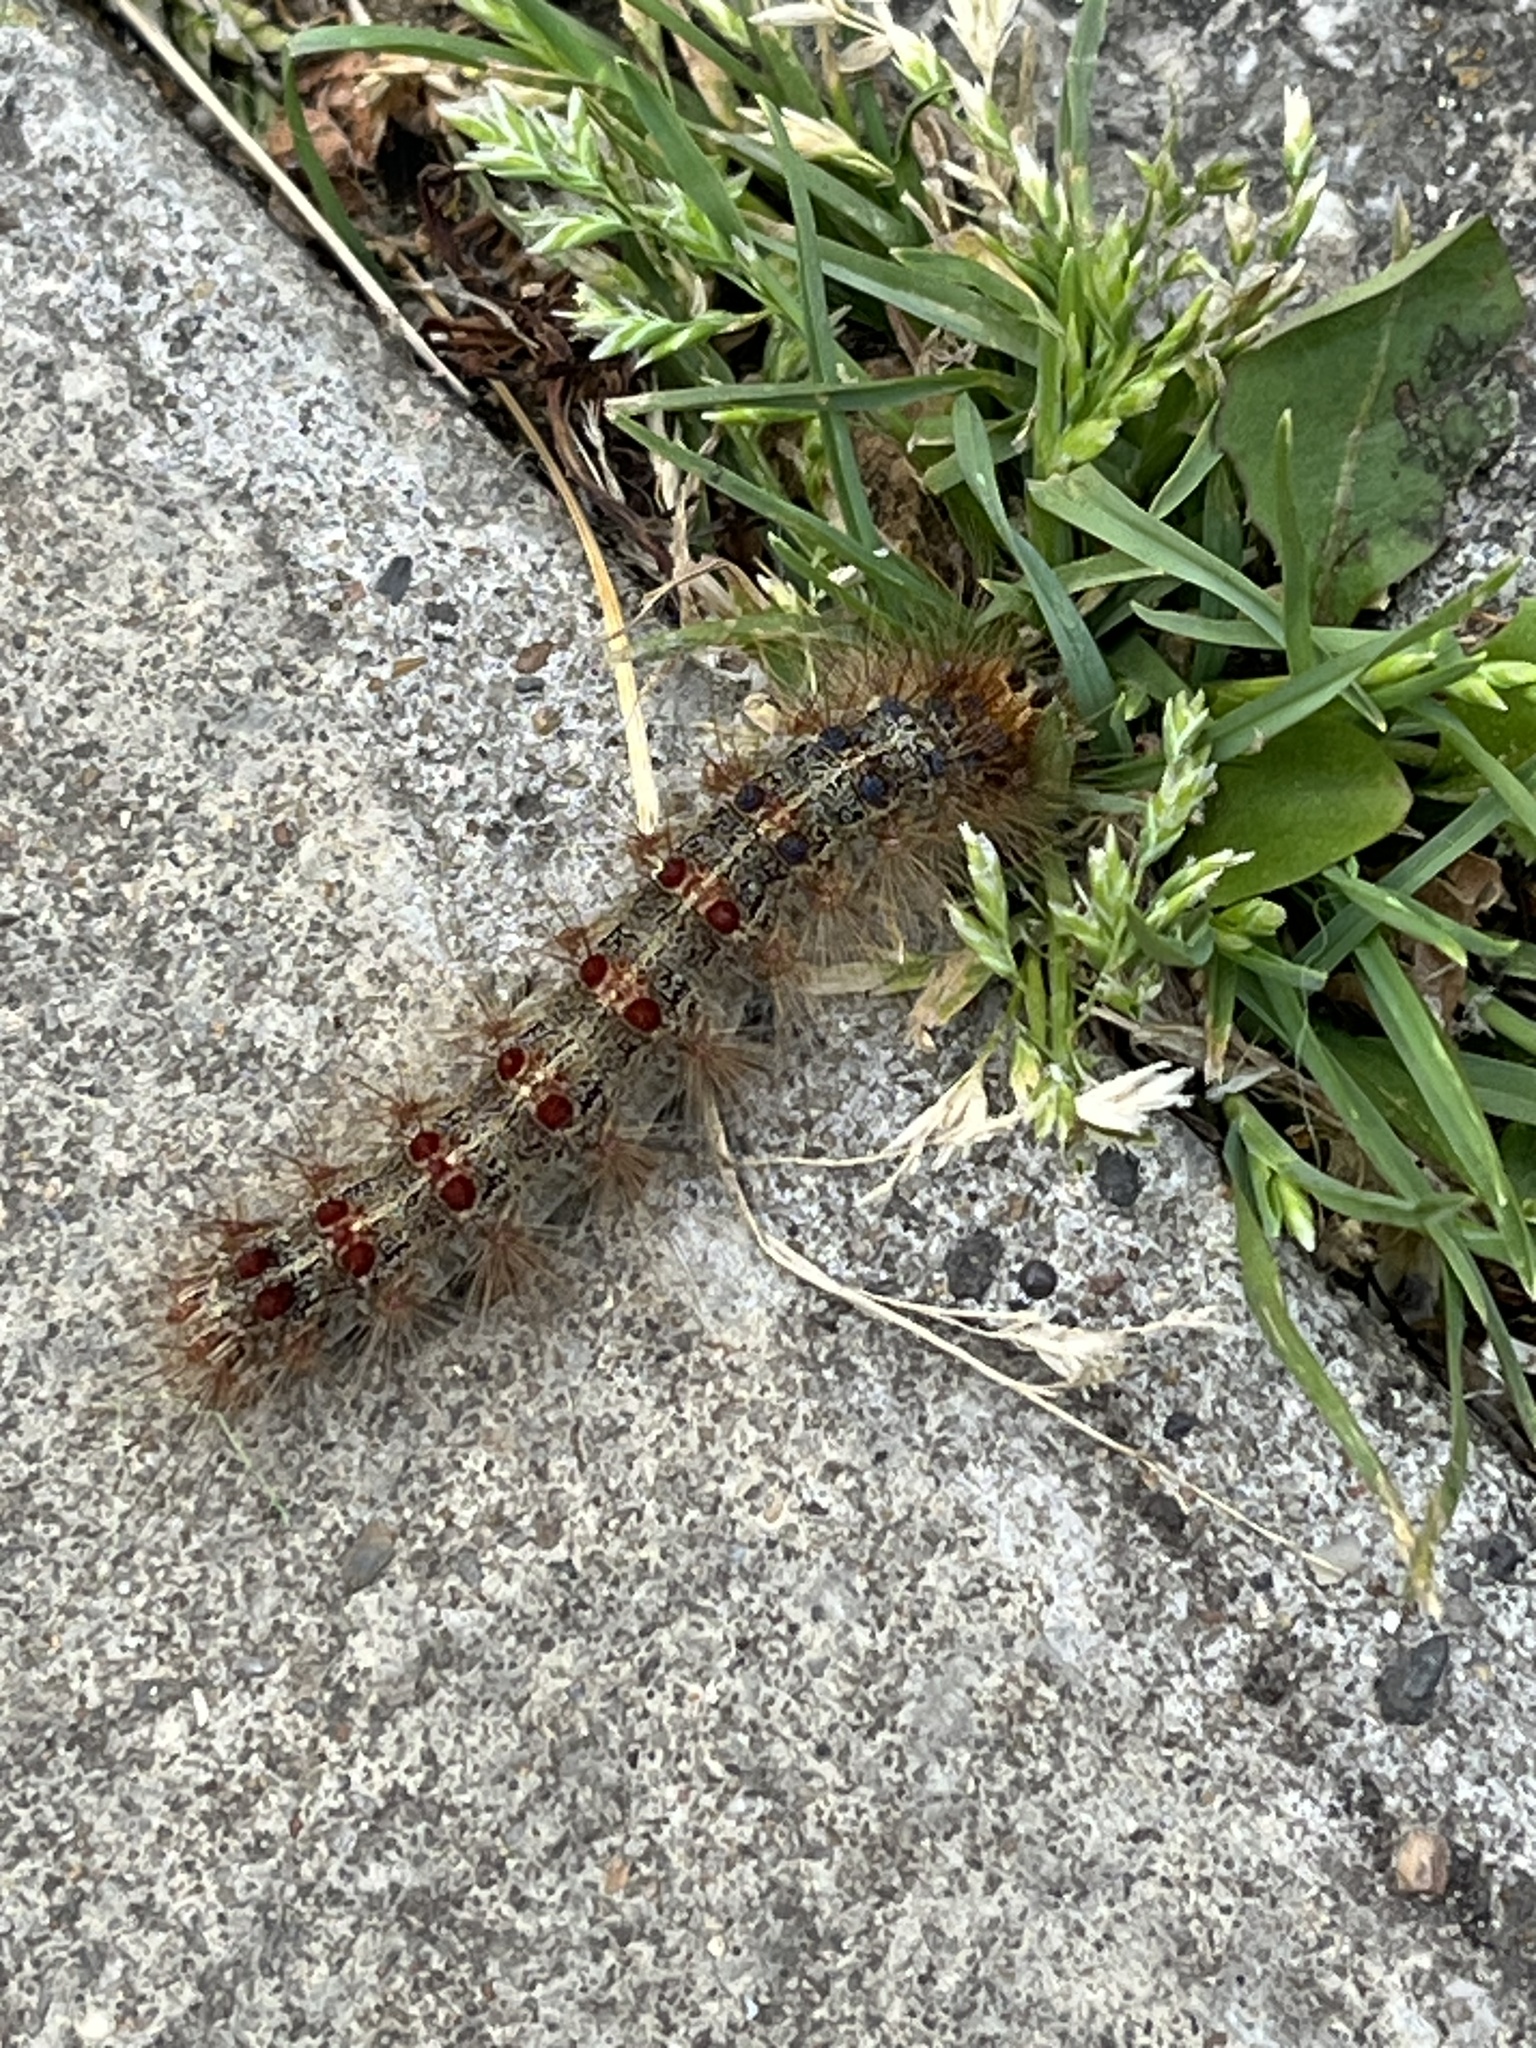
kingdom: Animalia
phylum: Arthropoda
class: Insecta
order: Lepidoptera
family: Erebidae
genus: Lymantria
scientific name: Lymantria dispar
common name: Gypsy moth
